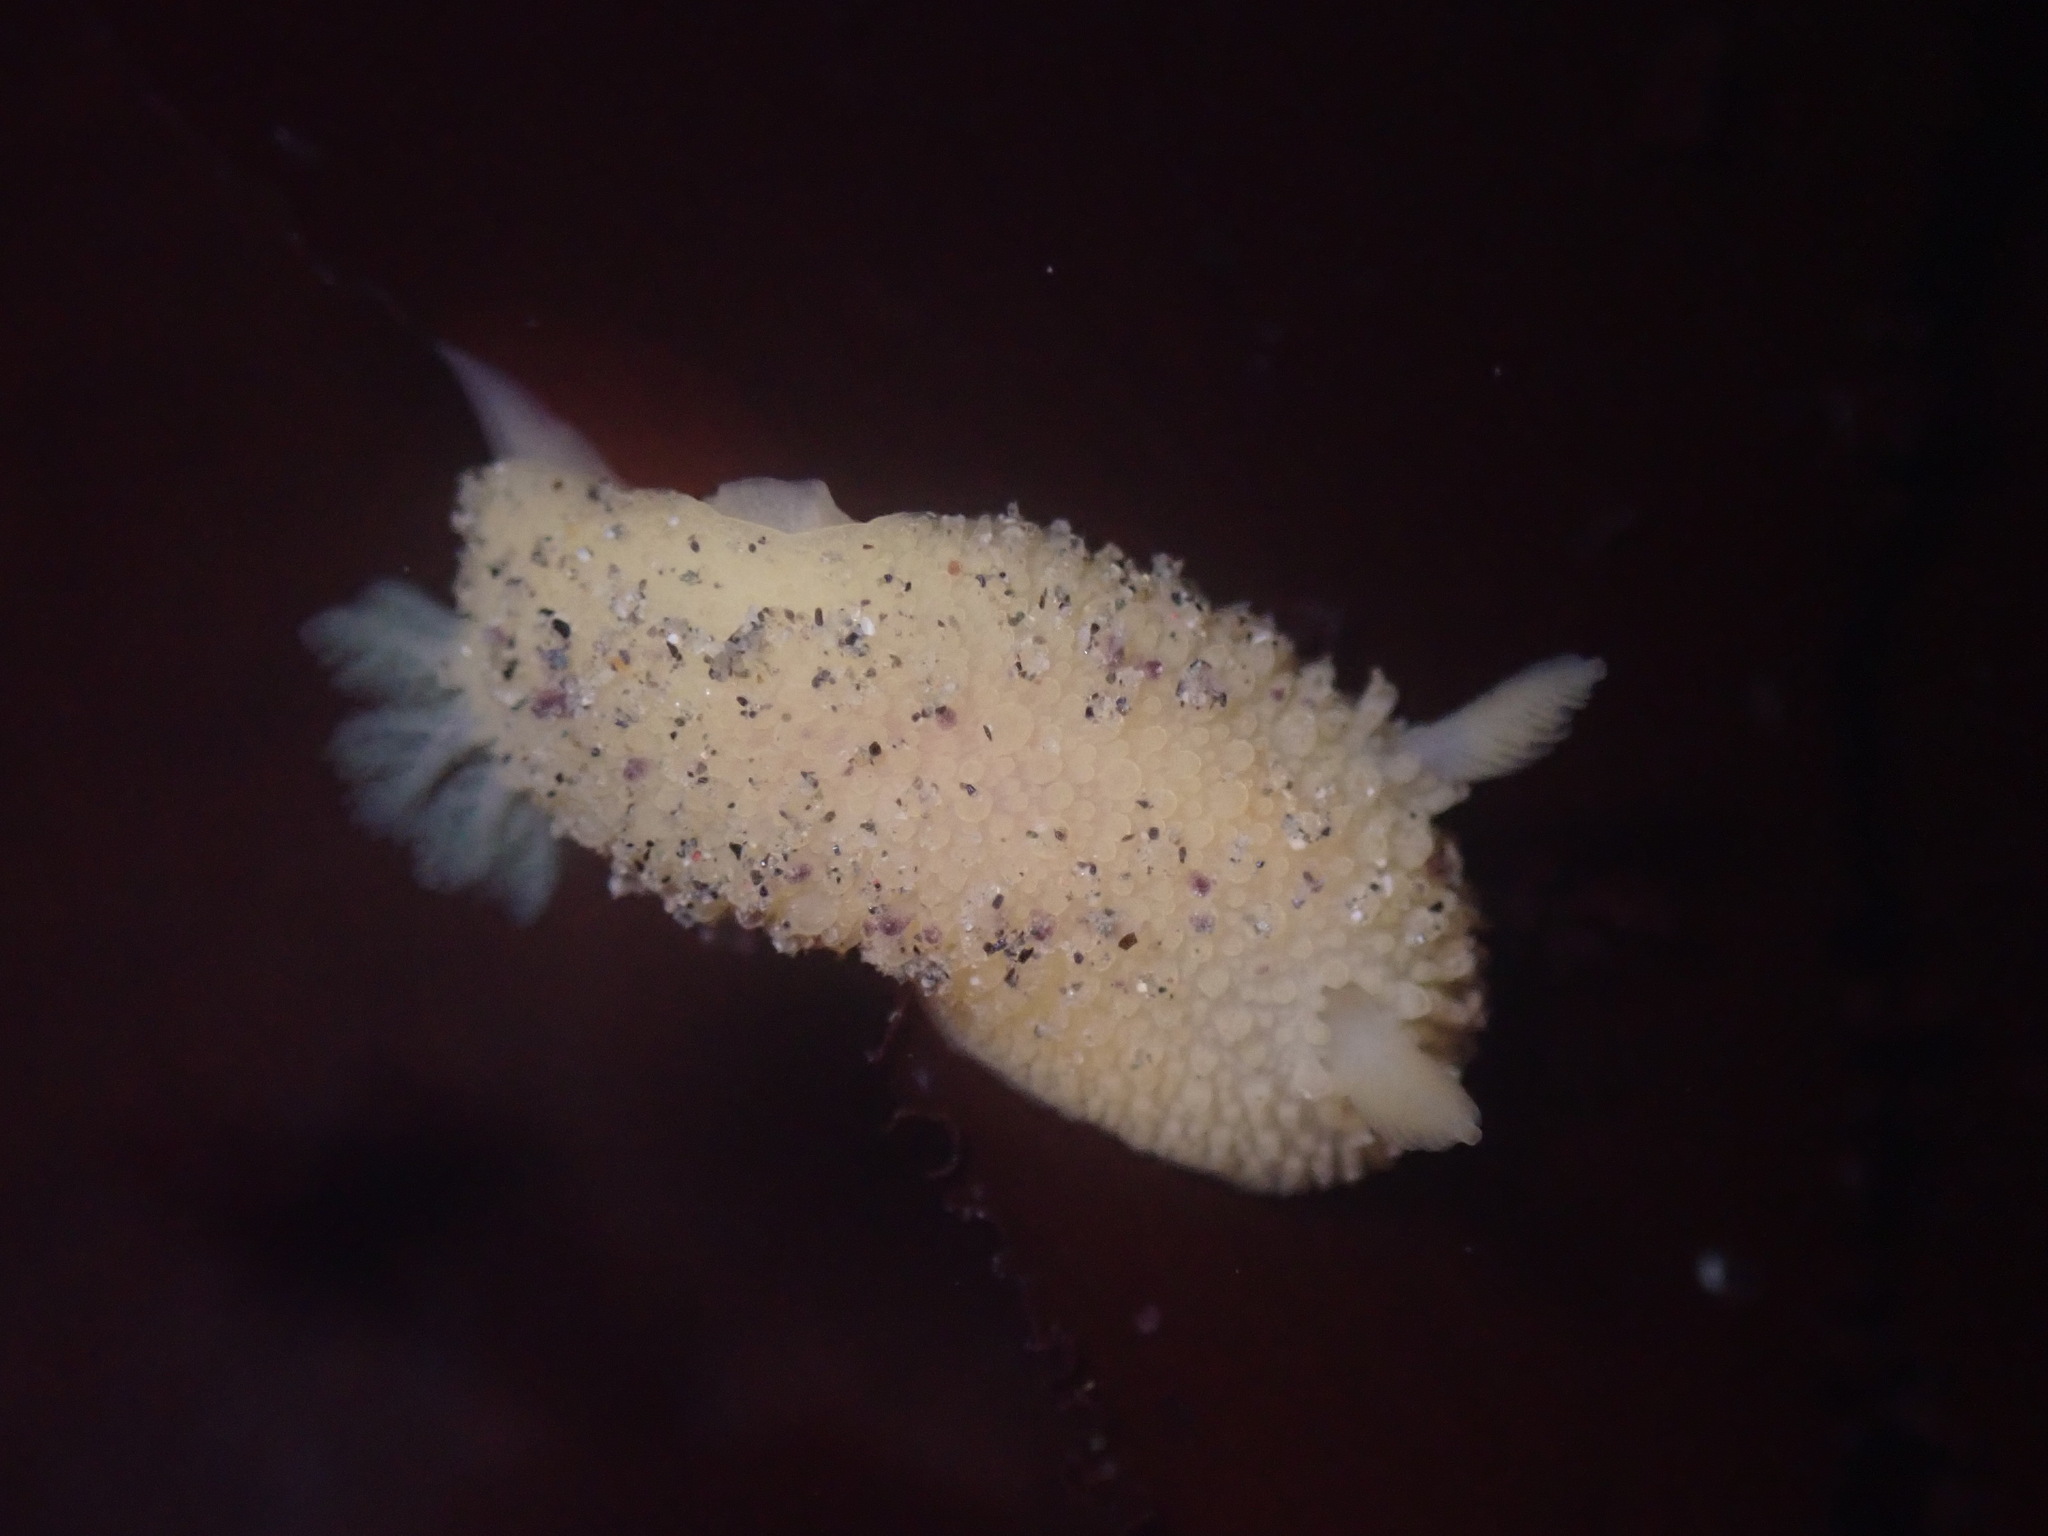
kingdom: Animalia
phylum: Mollusca
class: Gastropoda
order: Nudibranchia
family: Dorididae
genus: Doris
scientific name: Doris montereyensis
